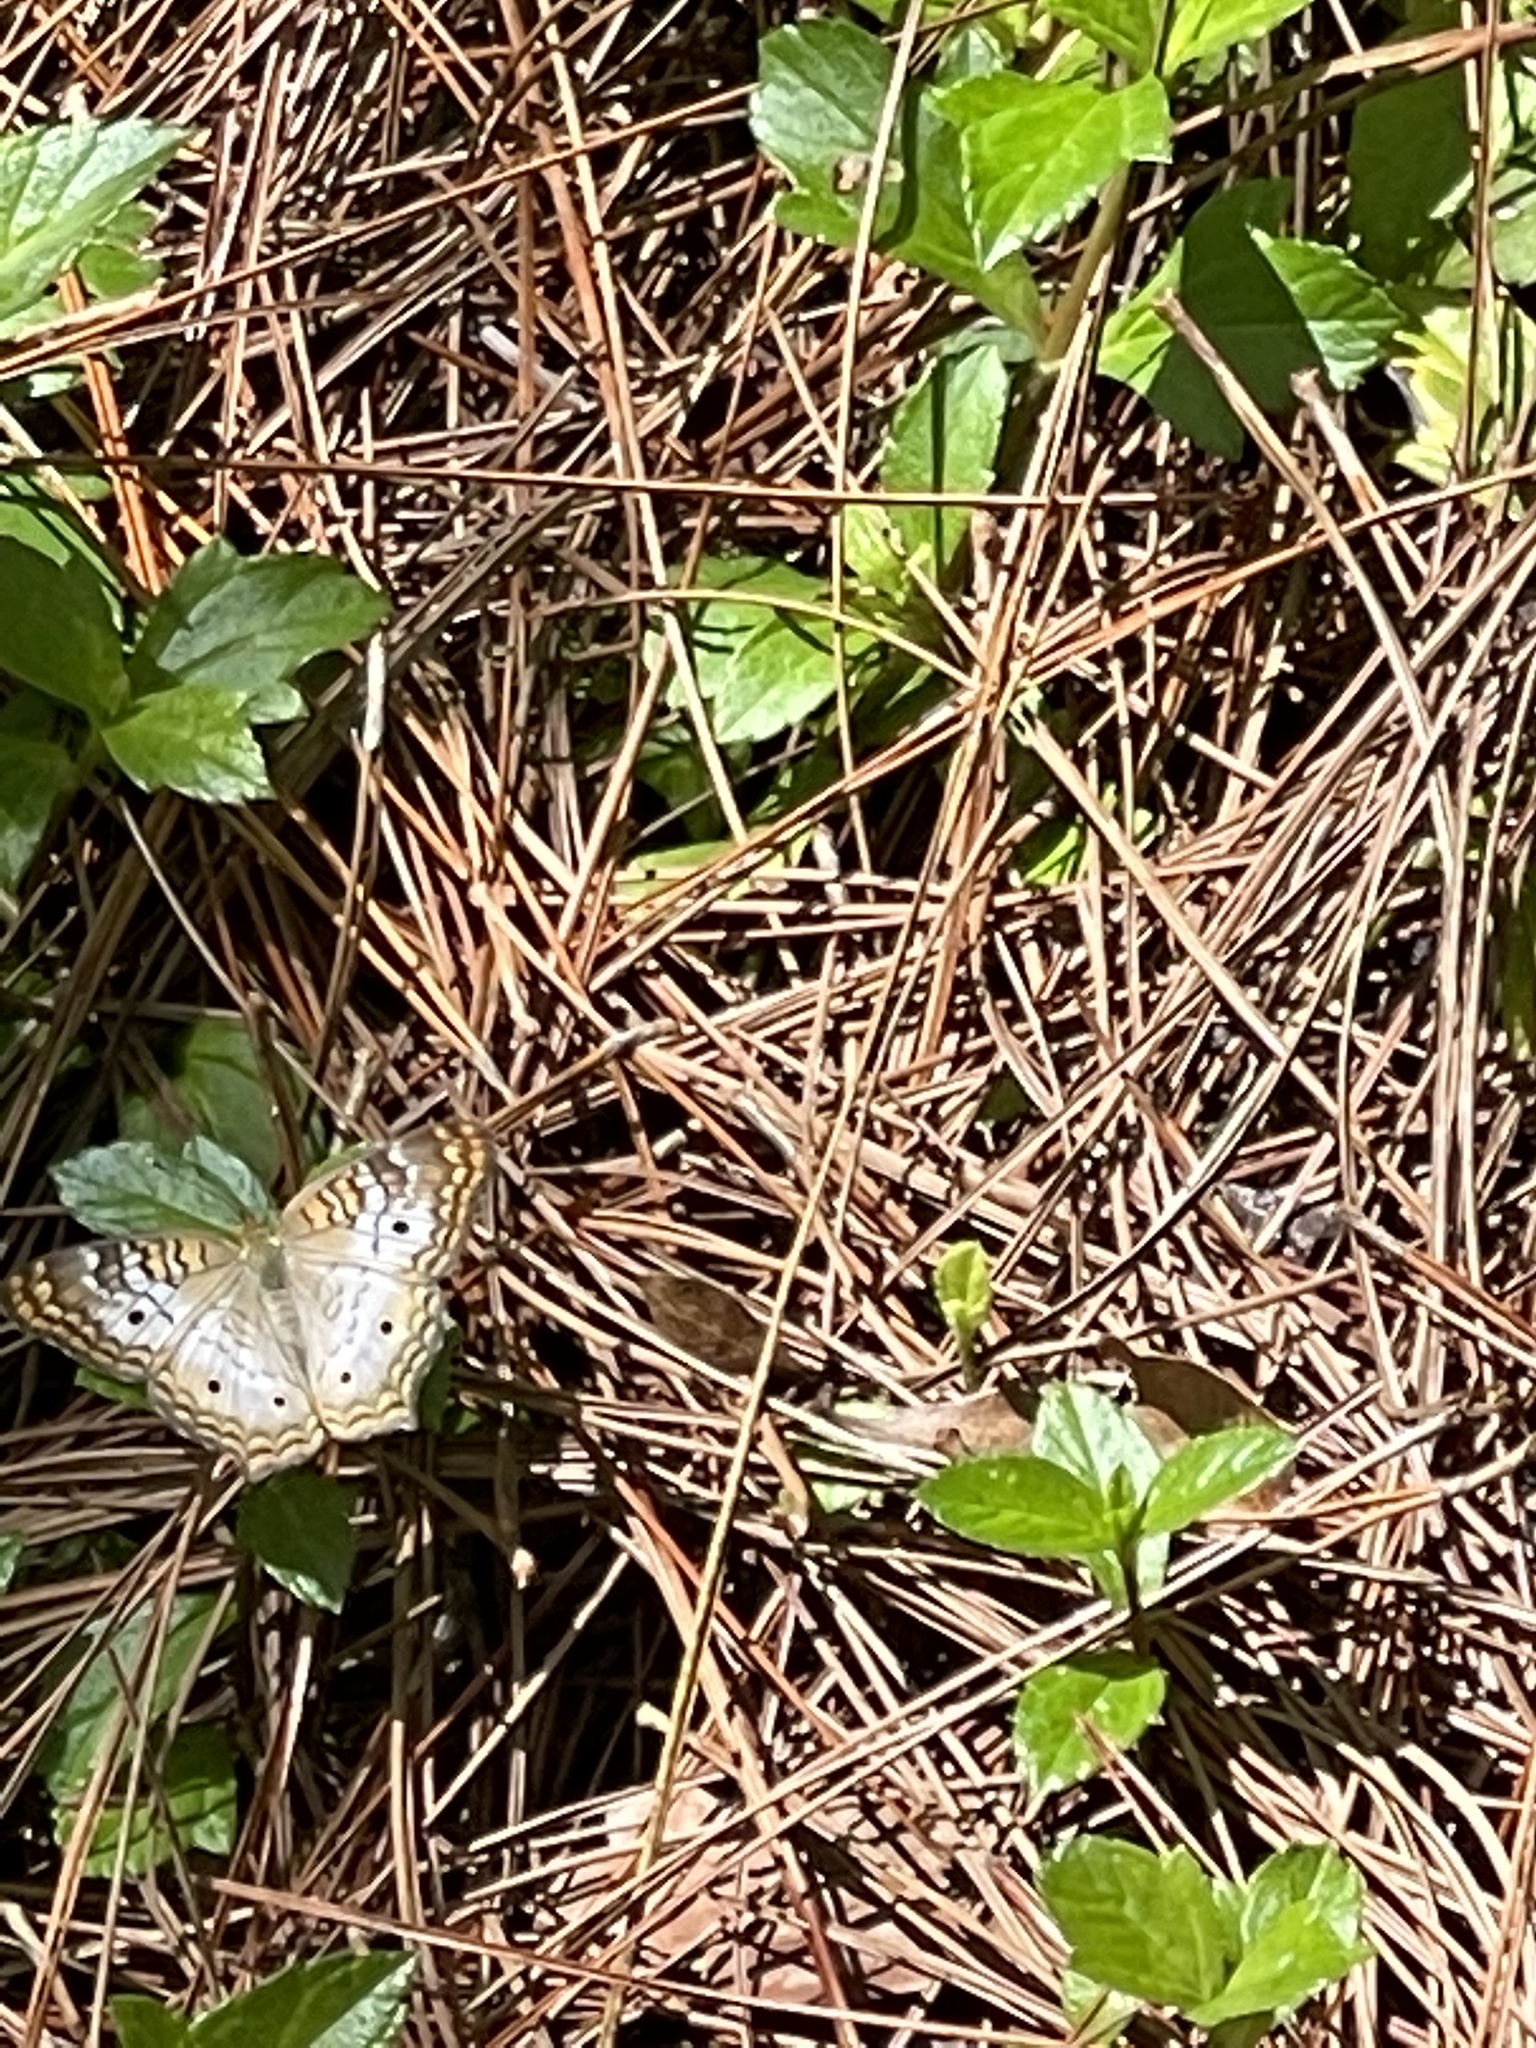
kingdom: Animalia
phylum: Arthropoda
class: Insecta
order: Lepidoptera
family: Nymphalidae
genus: Anartia
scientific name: Anartia jatrophae
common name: White peacock
